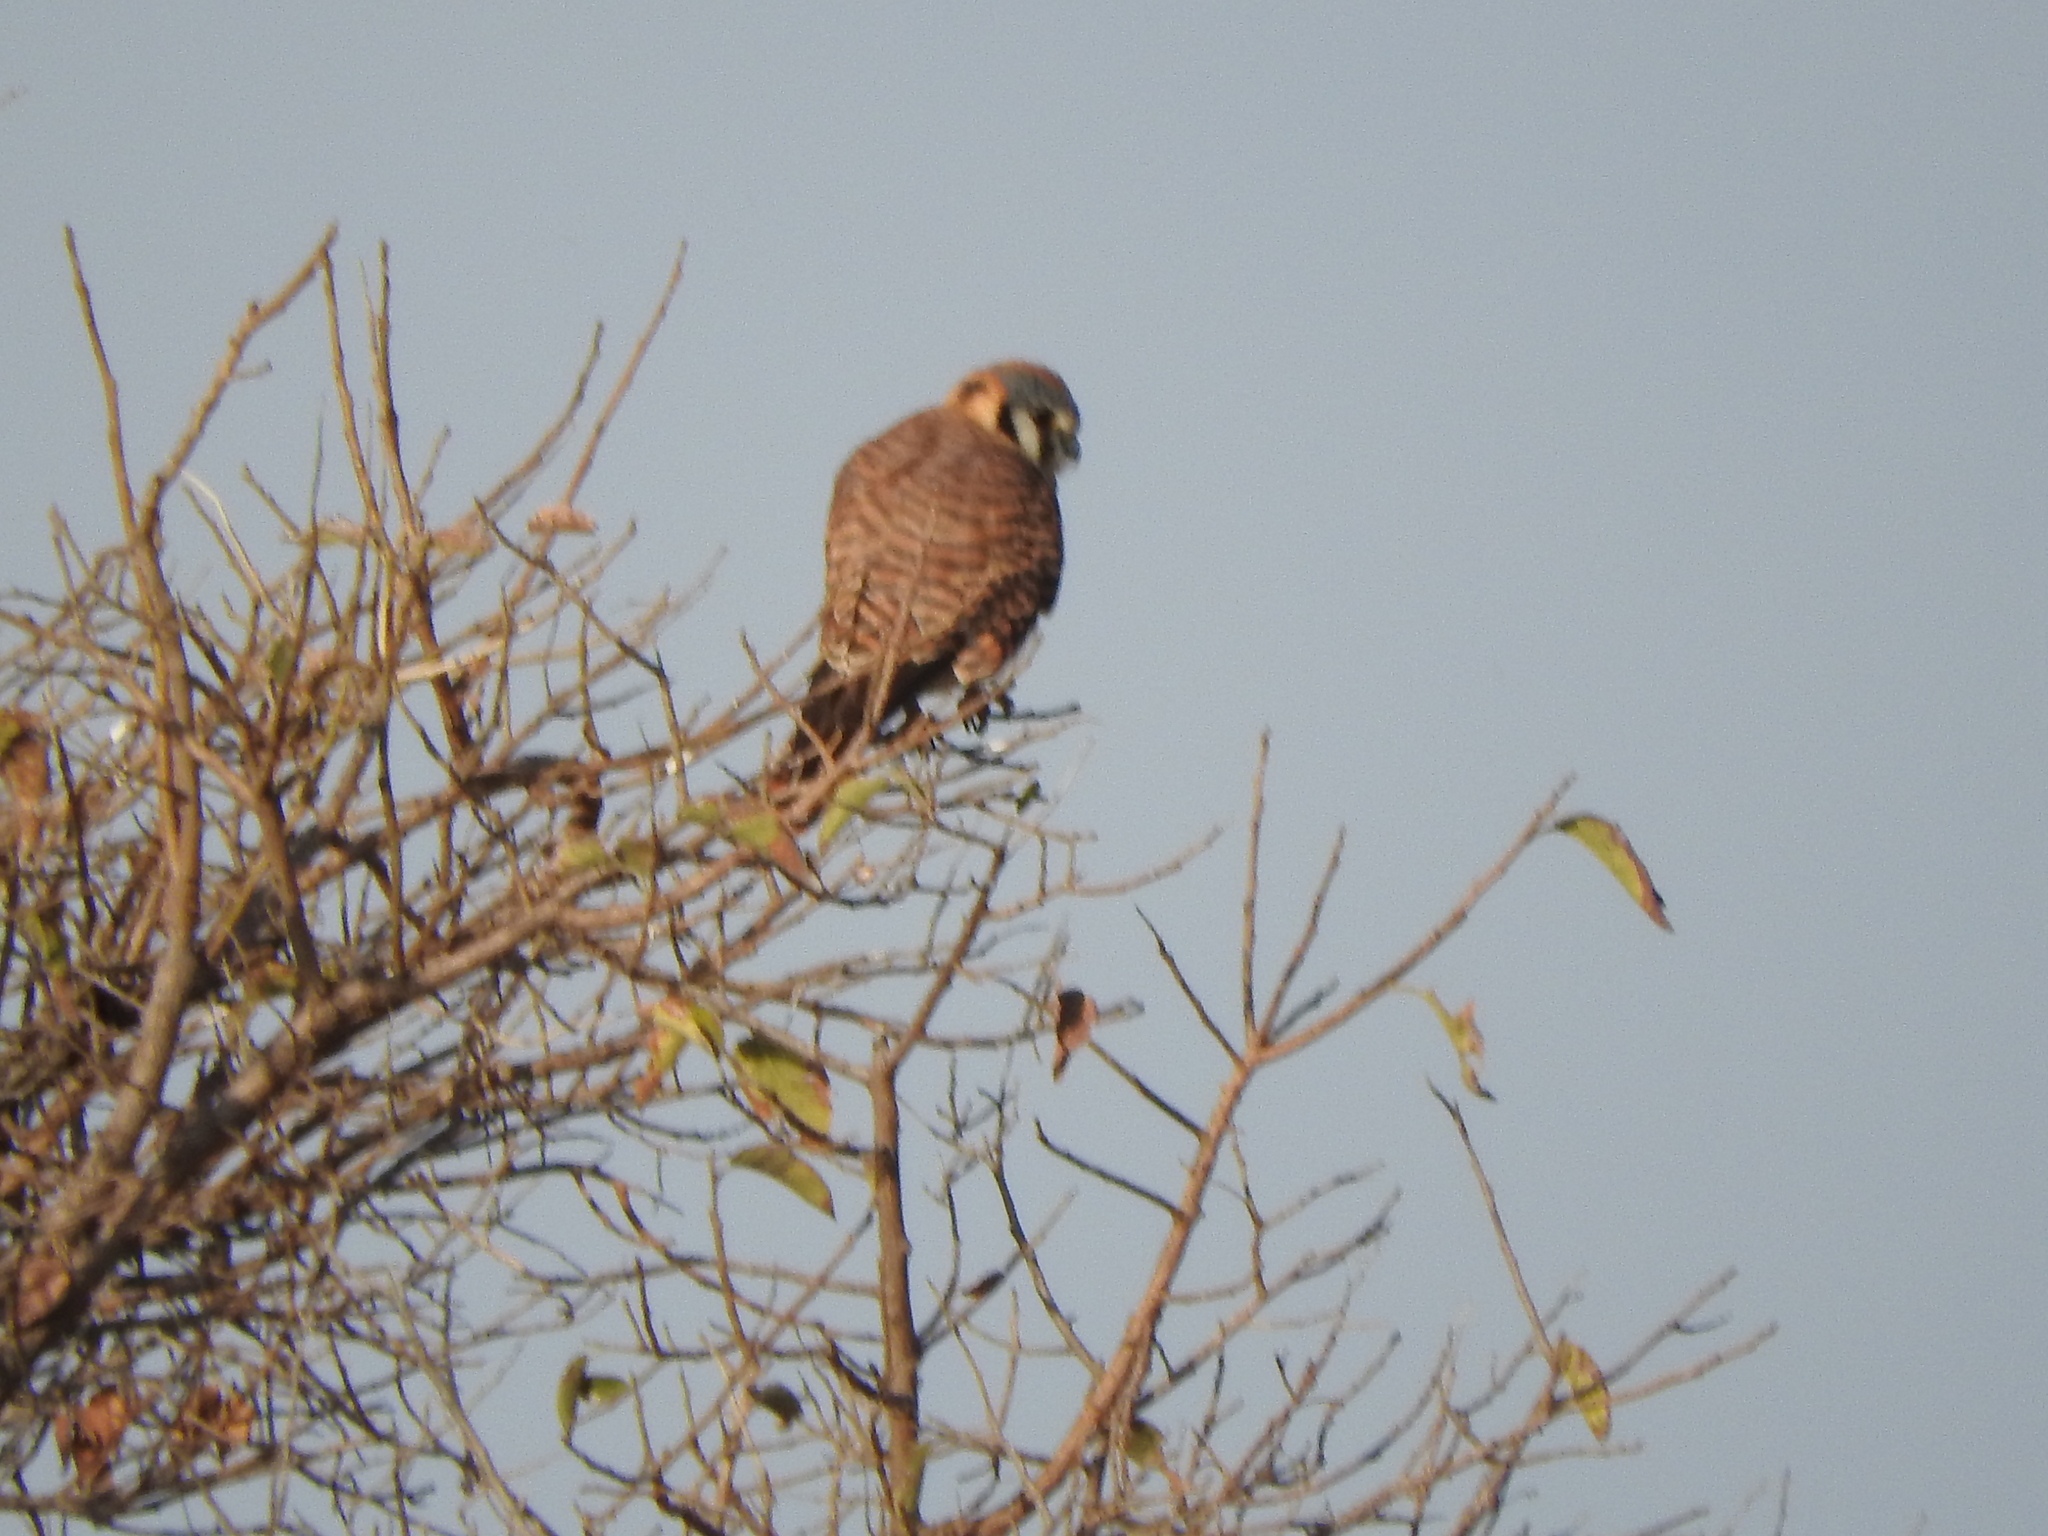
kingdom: Animalia
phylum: Chordata
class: Aves
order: Falconiformes
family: Falconidae
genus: Falco
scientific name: Falco sparverius
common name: American kestrel
